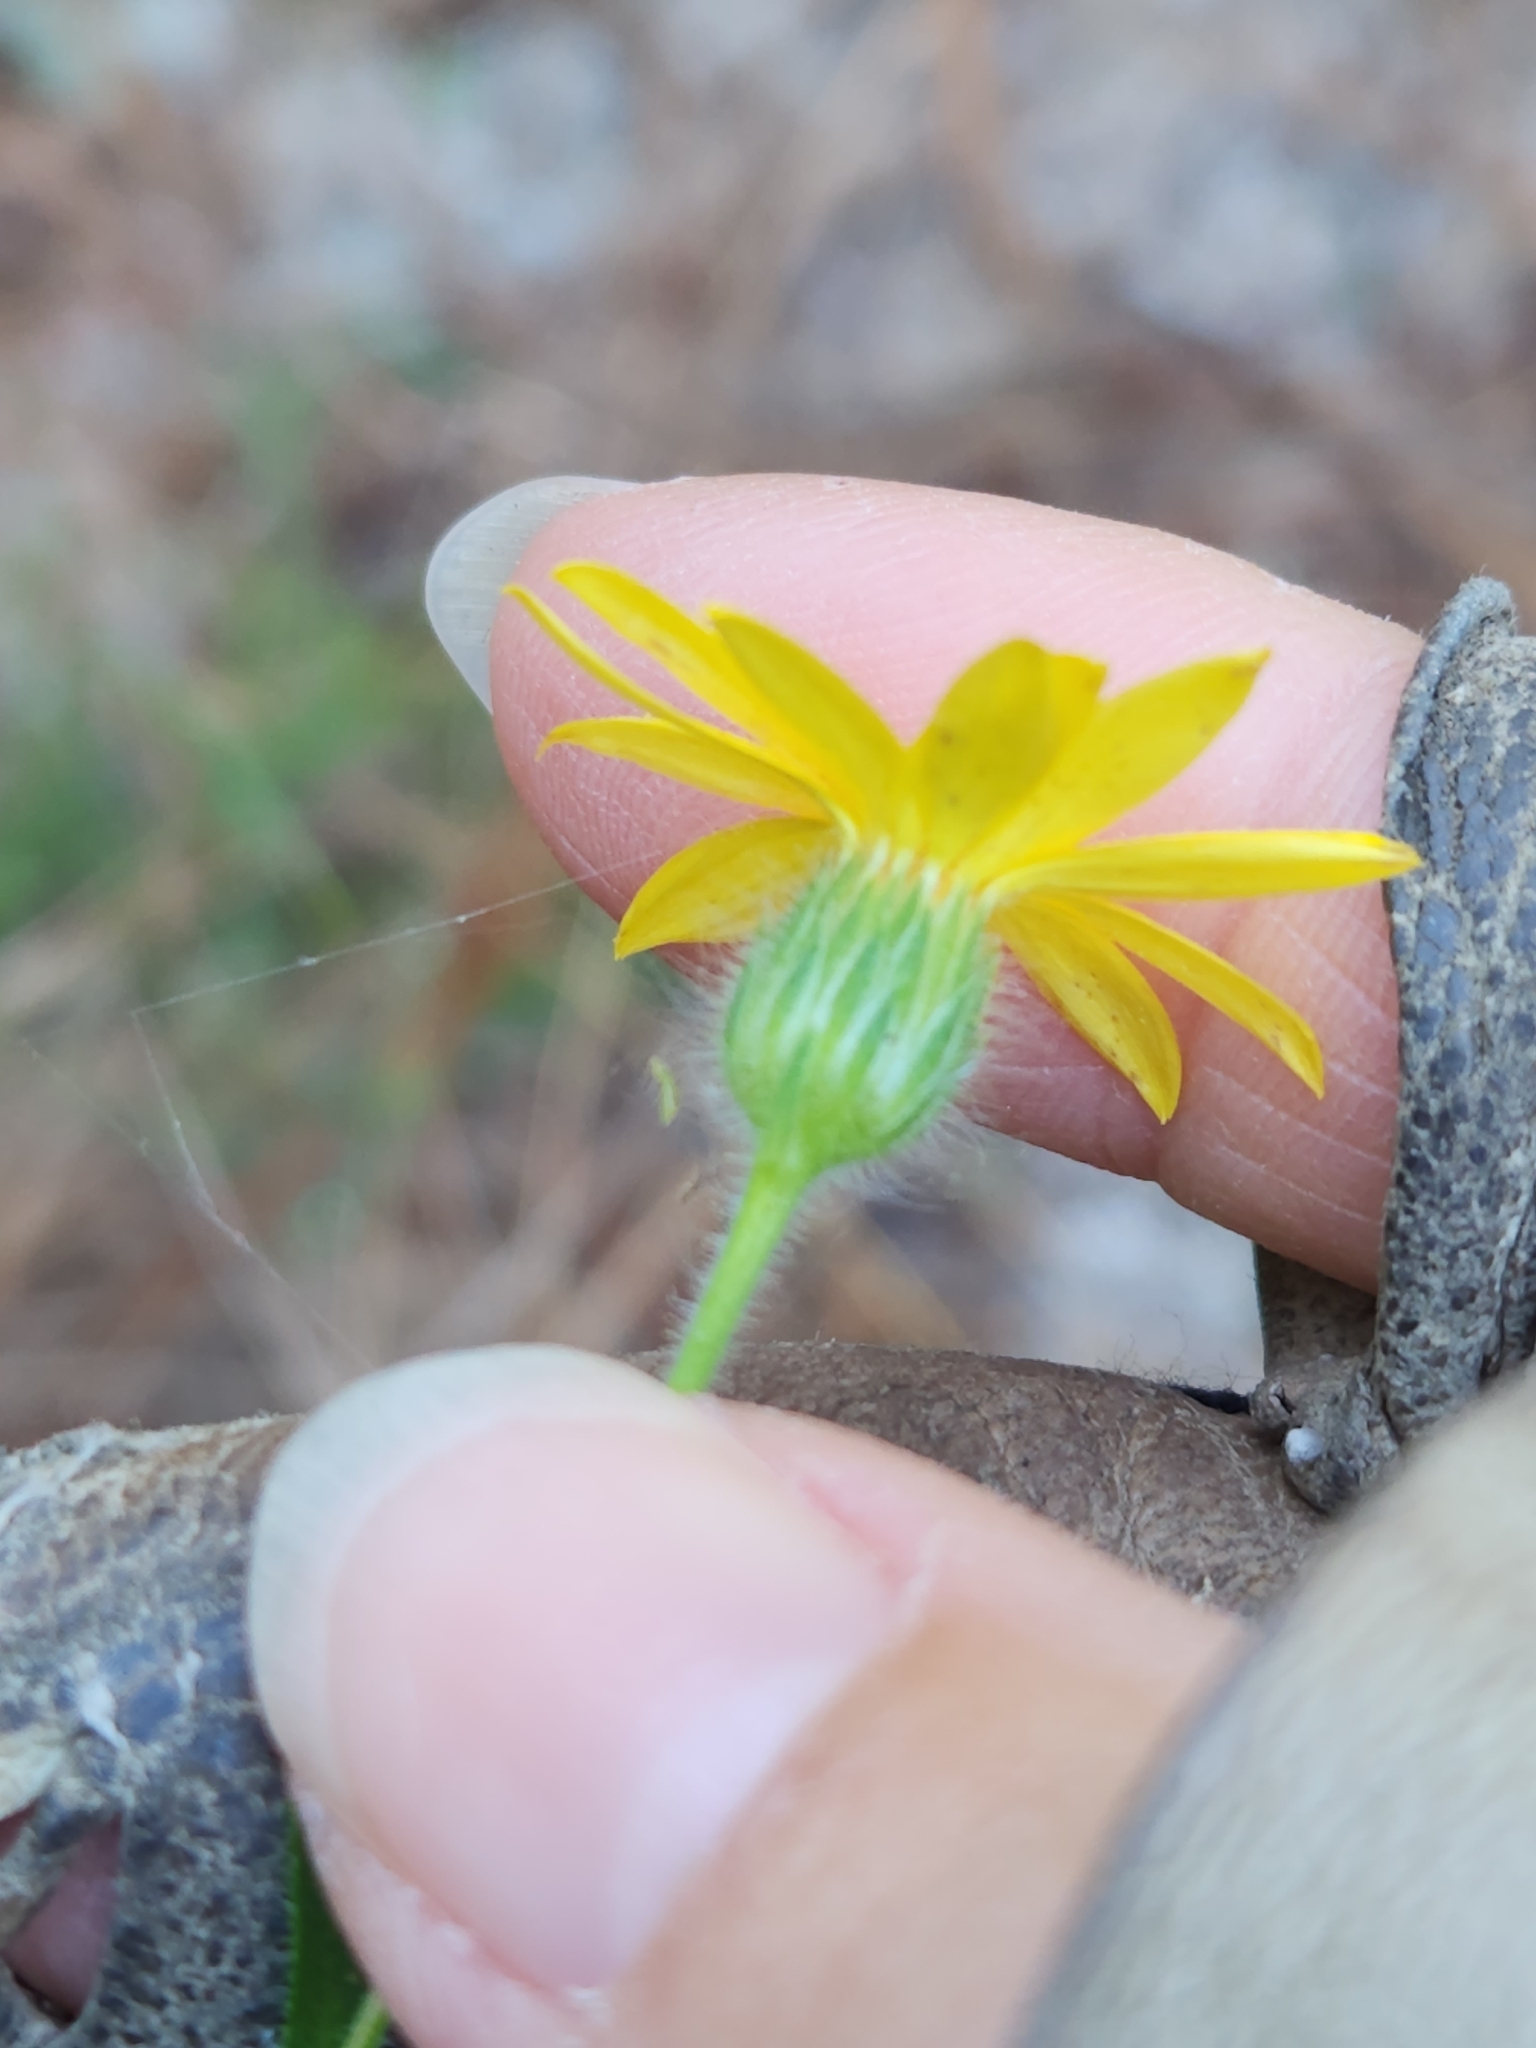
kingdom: Plantae
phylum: Tracheophyta
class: Magnoliopsida
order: Asterales
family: Asteraceae
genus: Bradburia
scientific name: Bradburia pilosa
